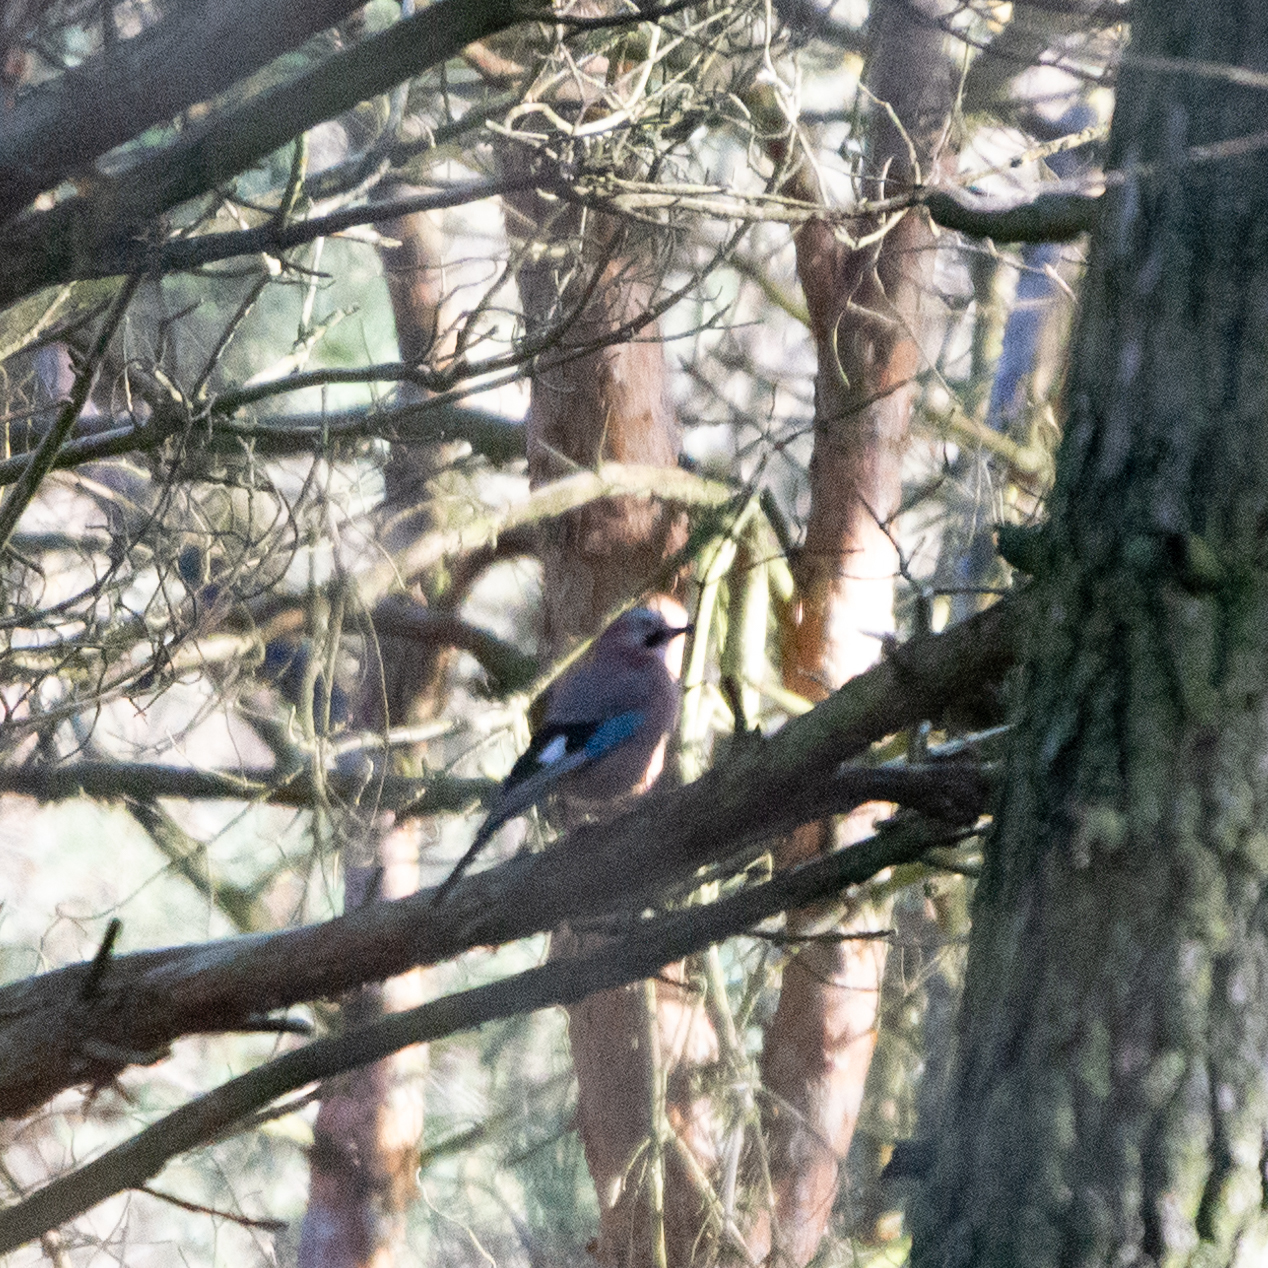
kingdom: Animalia
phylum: Chordata
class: Aves
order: Passeriformes
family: Corvidae
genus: Garrulus
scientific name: Garrulus glandarius
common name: Eurasian jay
